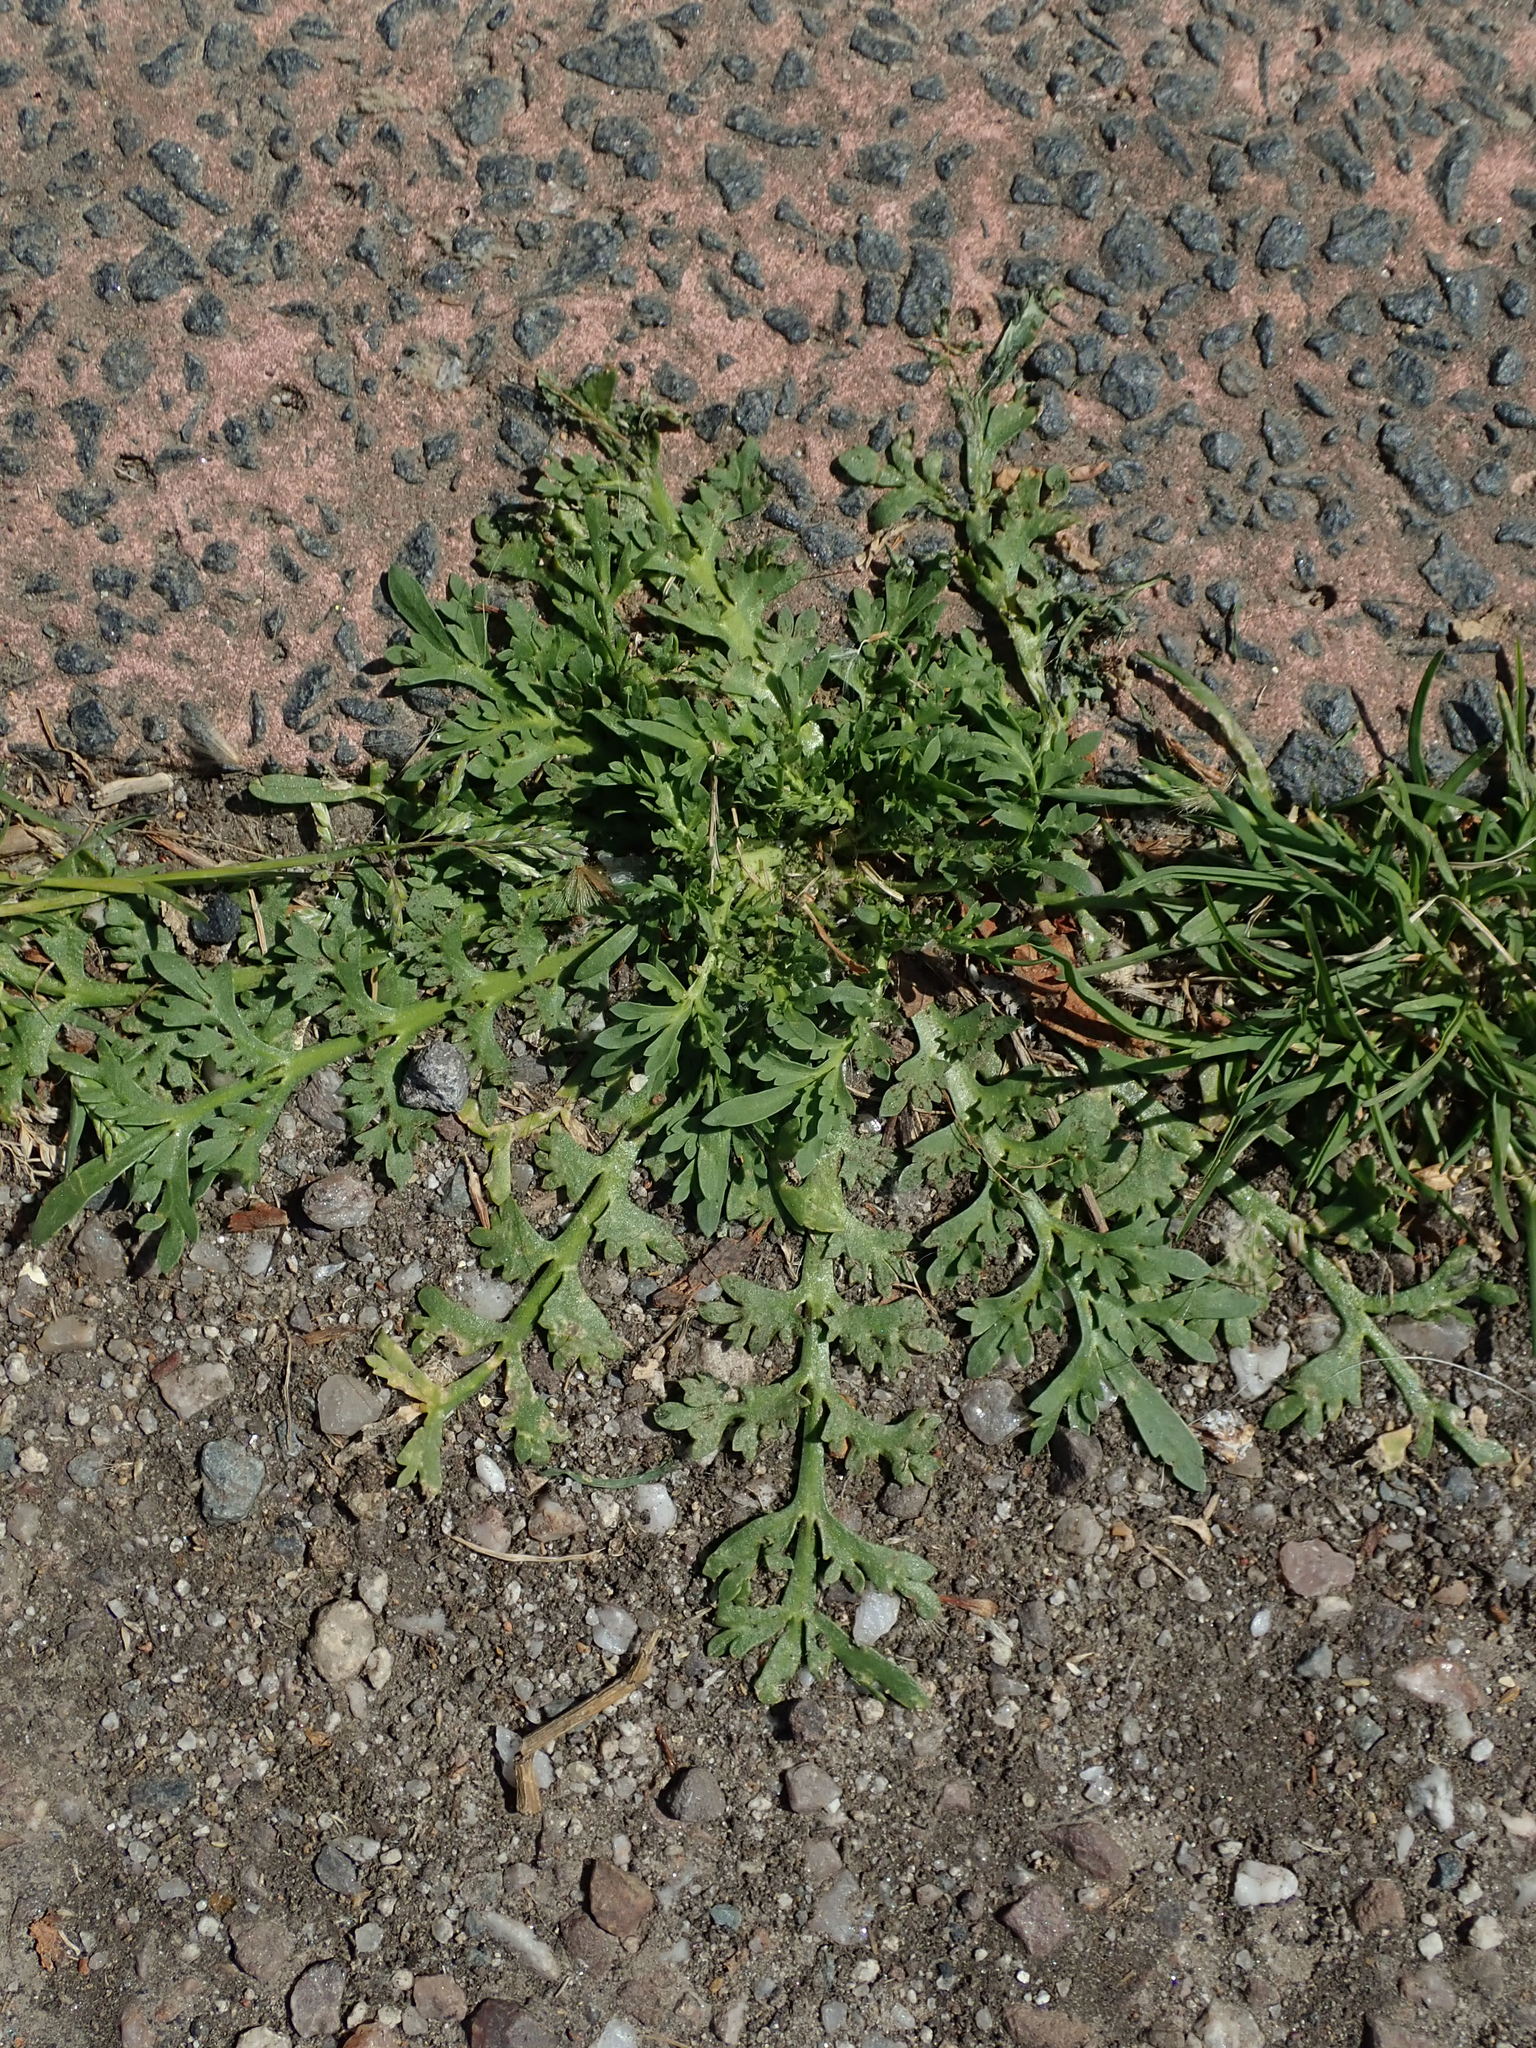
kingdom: Plantae
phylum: Tracheophyta
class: Magnoliopsida
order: Brassicales
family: Brassicaceae
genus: Lepidium
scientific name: Lepidium didymum
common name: Lesser swinecress
